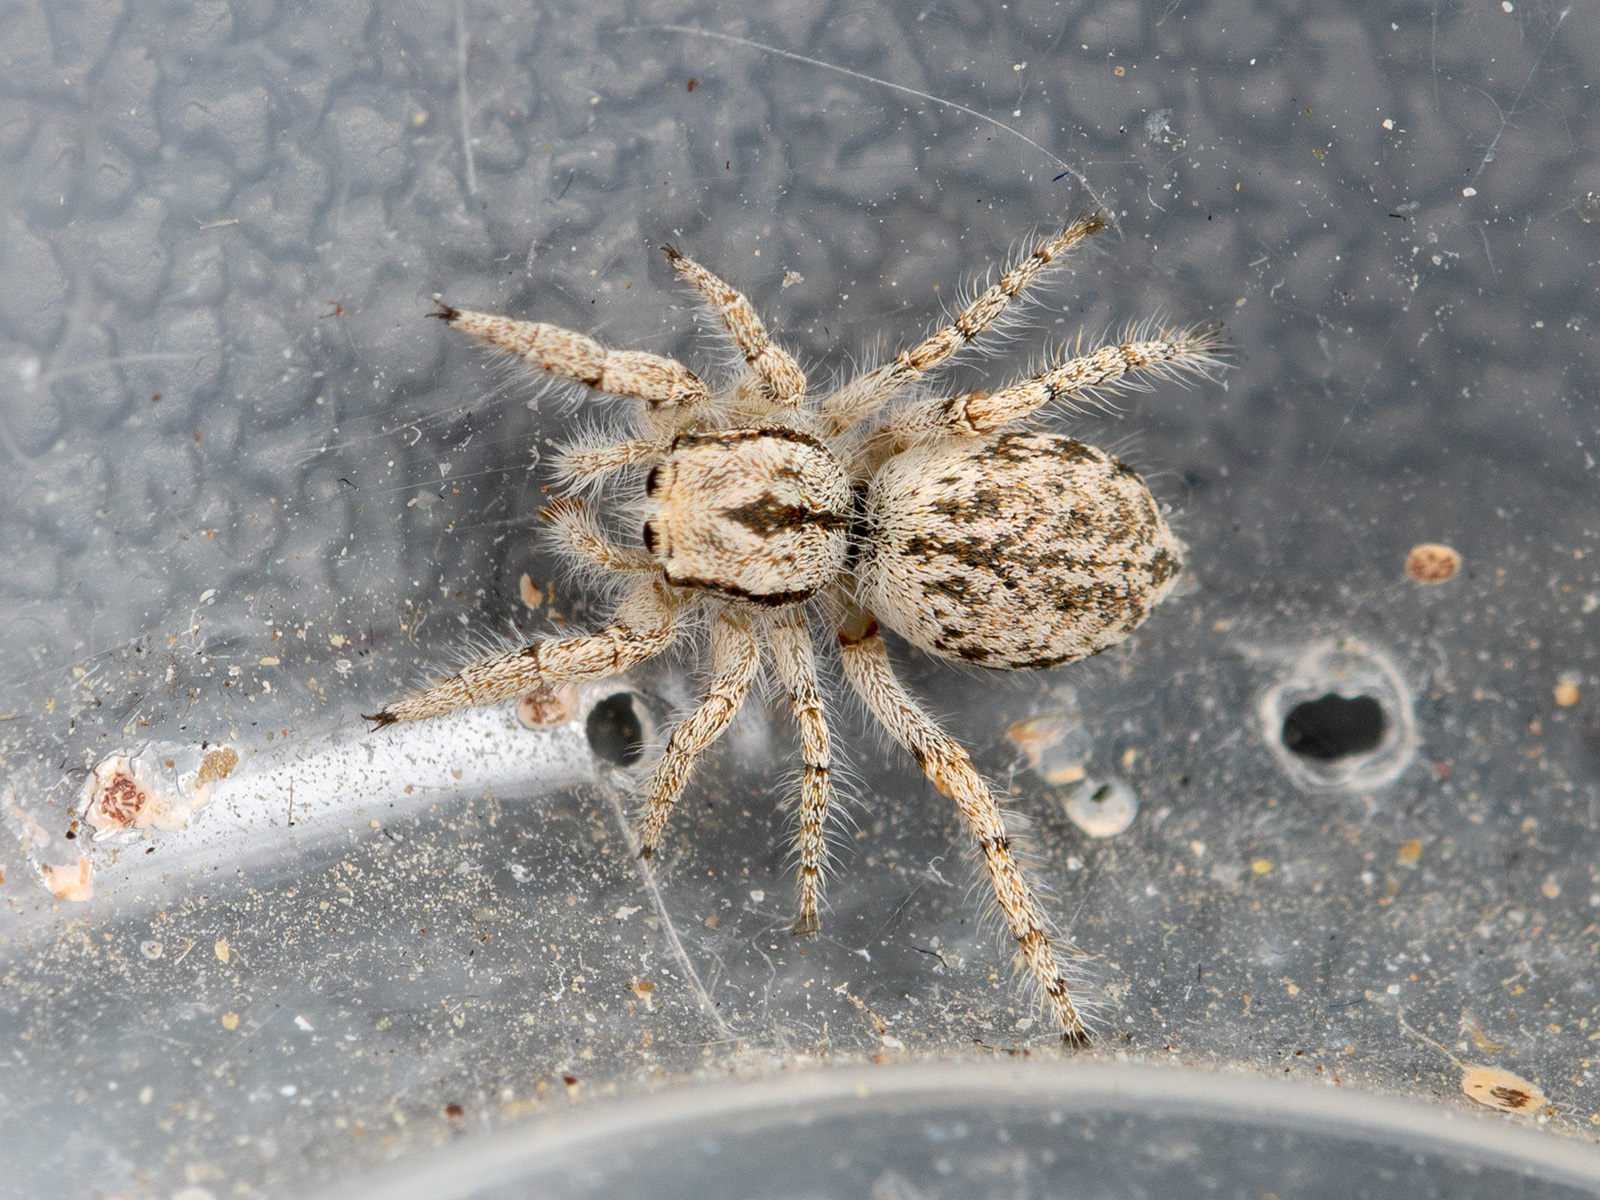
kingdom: Animalia
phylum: Arthropoda
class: Arachnida
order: Araneae
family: Salticidae
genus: Marusyllus
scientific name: Marusyllus aralicus
